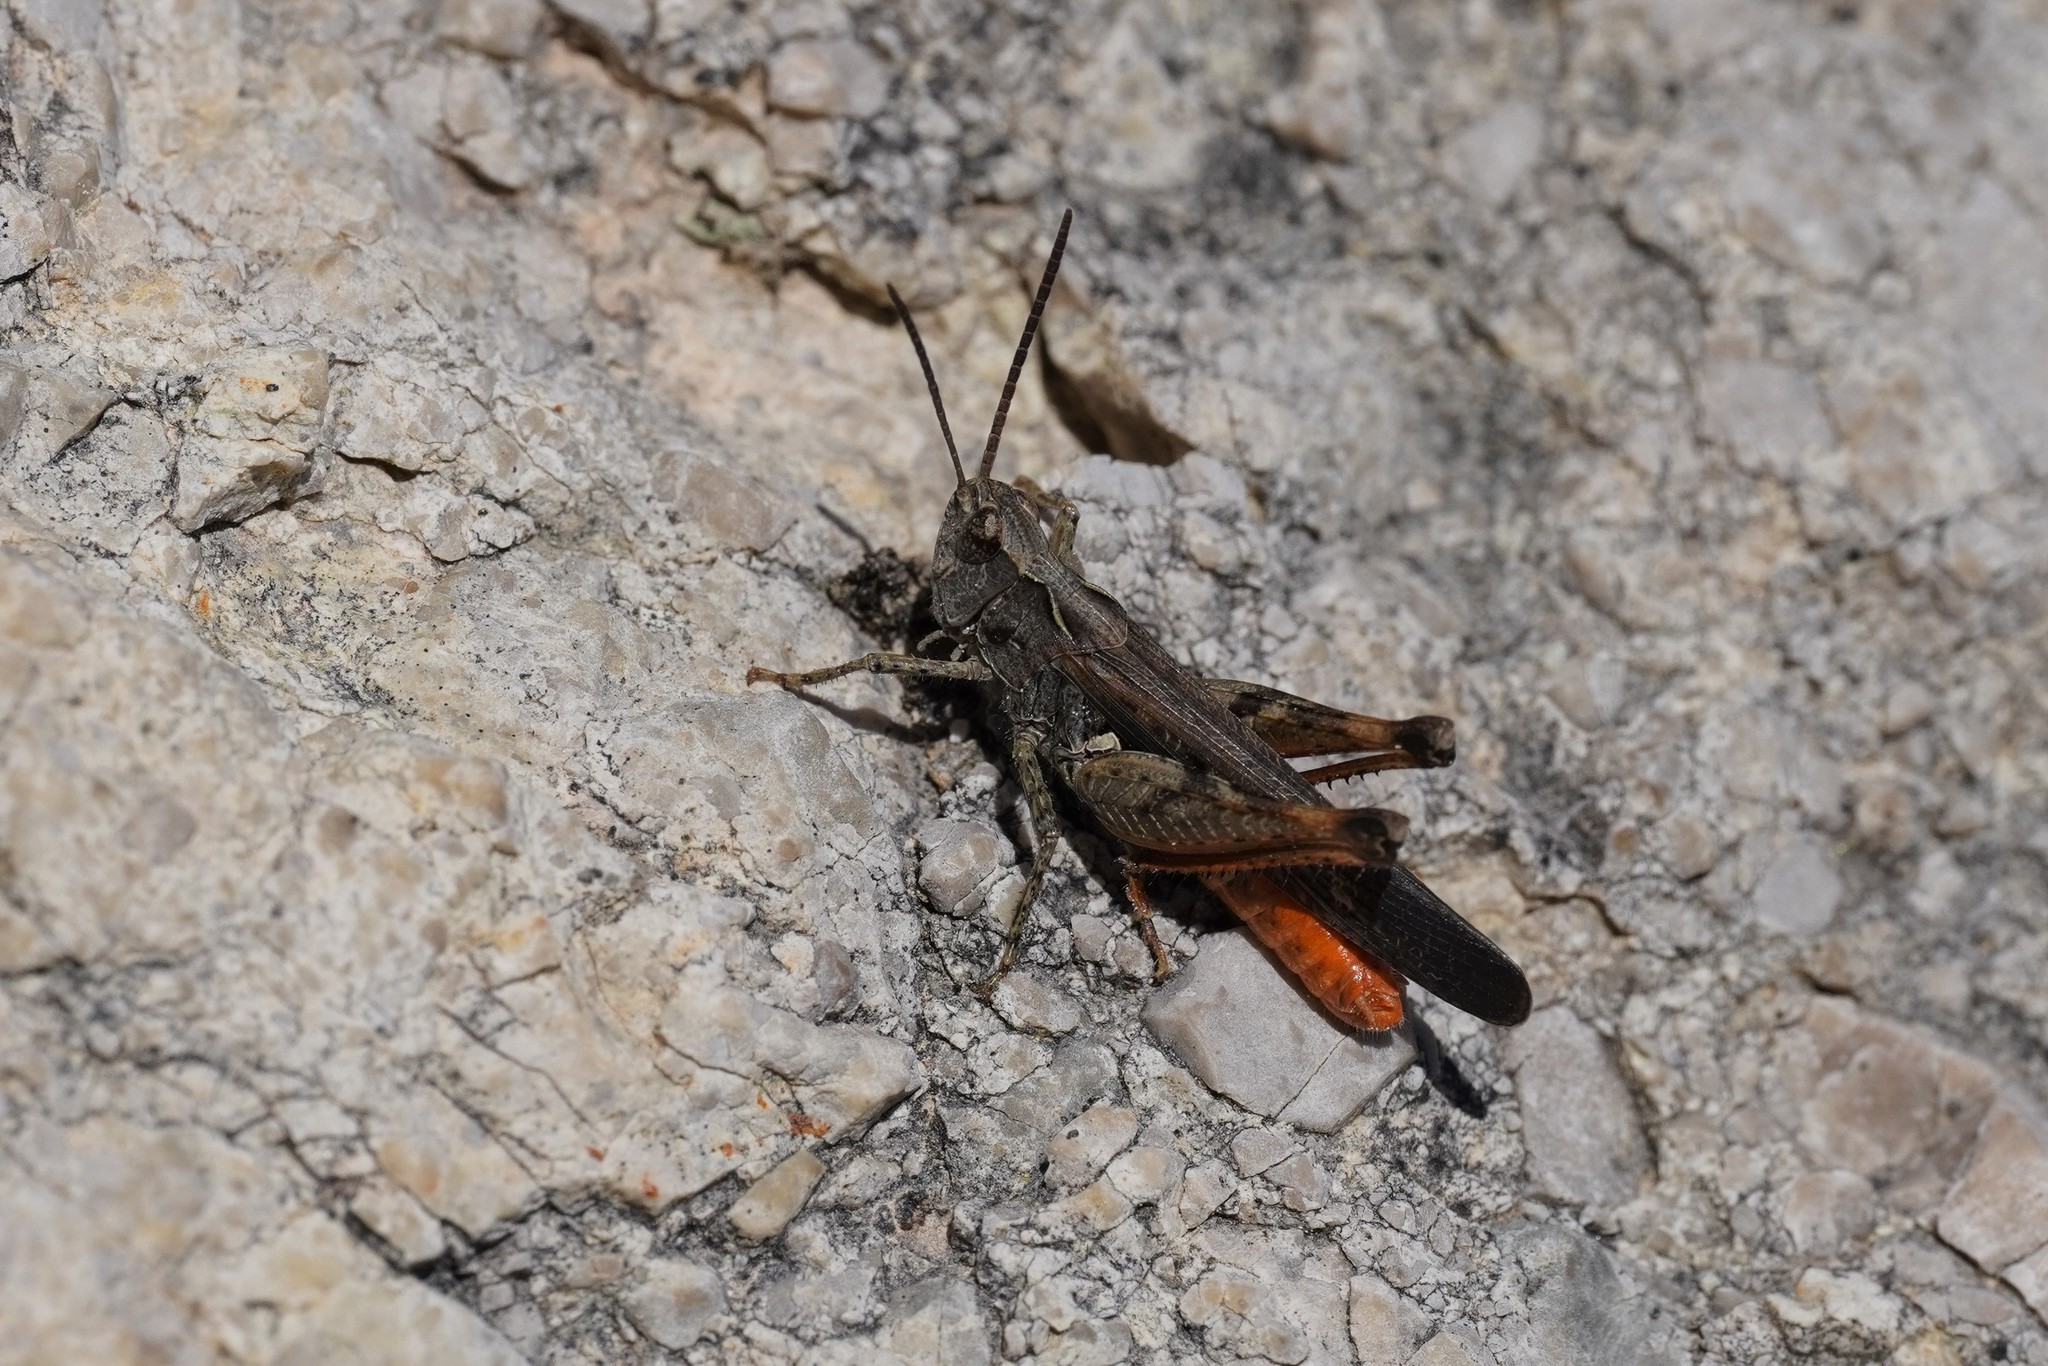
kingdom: Animalia
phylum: Arthropoda
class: Insecta
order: Orthoptera
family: Acrididae
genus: Omocestus
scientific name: Omocestus raymondi
